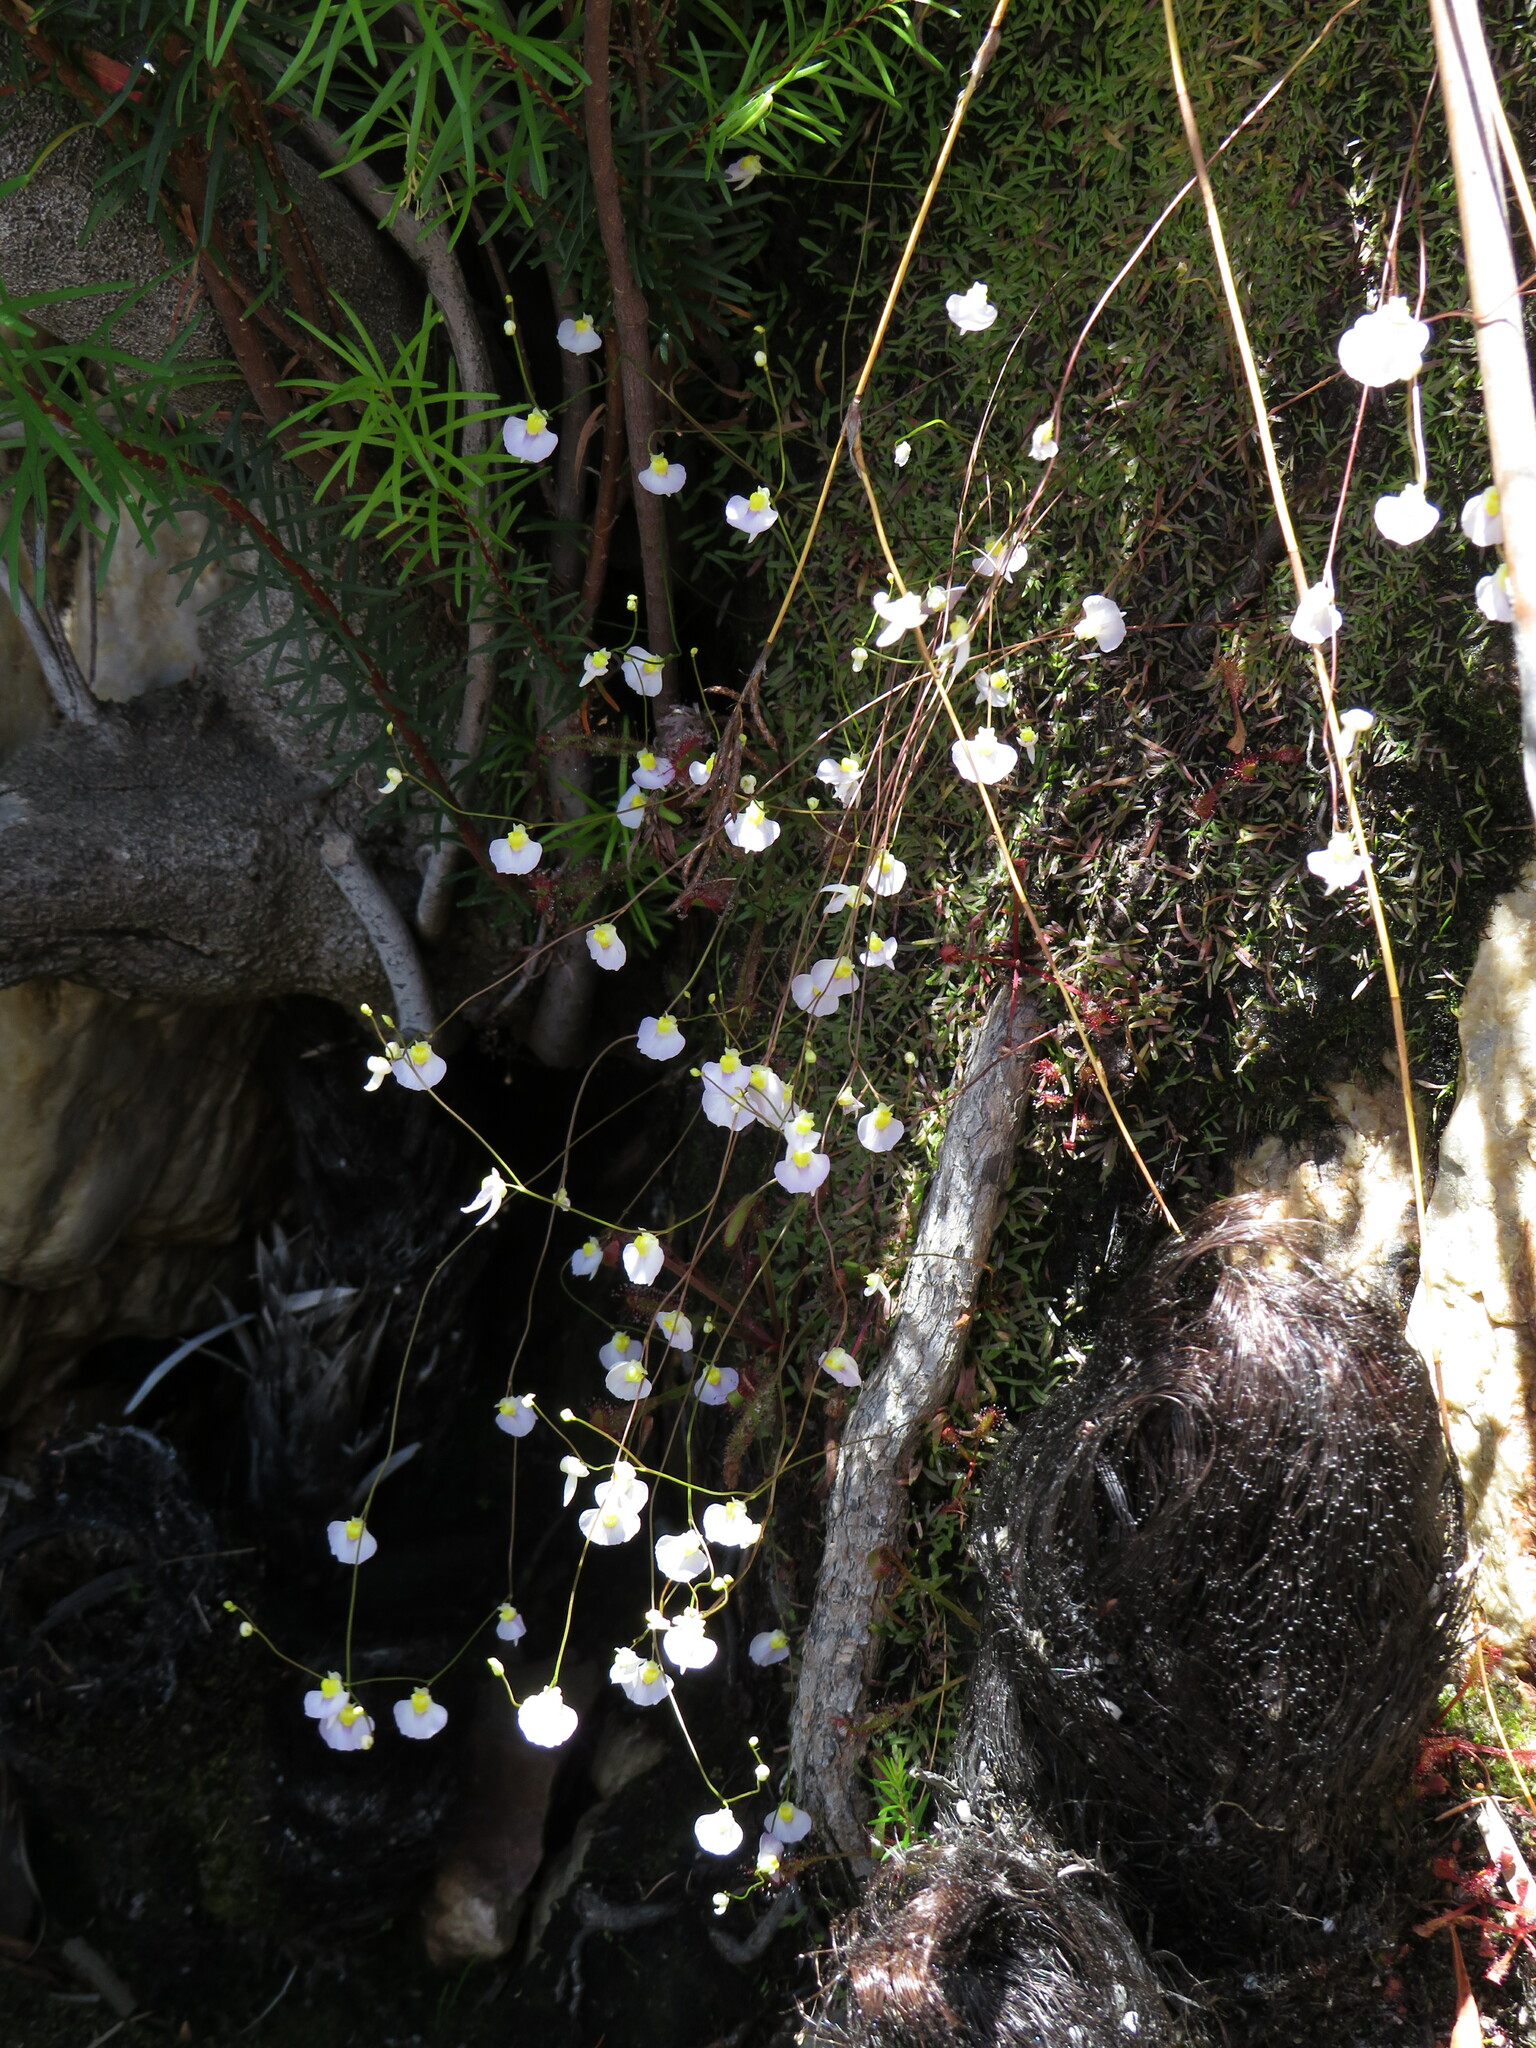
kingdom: Plantae
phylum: Tracheophyta
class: Magnoliopsida
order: Lamiales
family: Lentibulariaceae
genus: Utricularia
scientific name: Utricularia bisquamata
